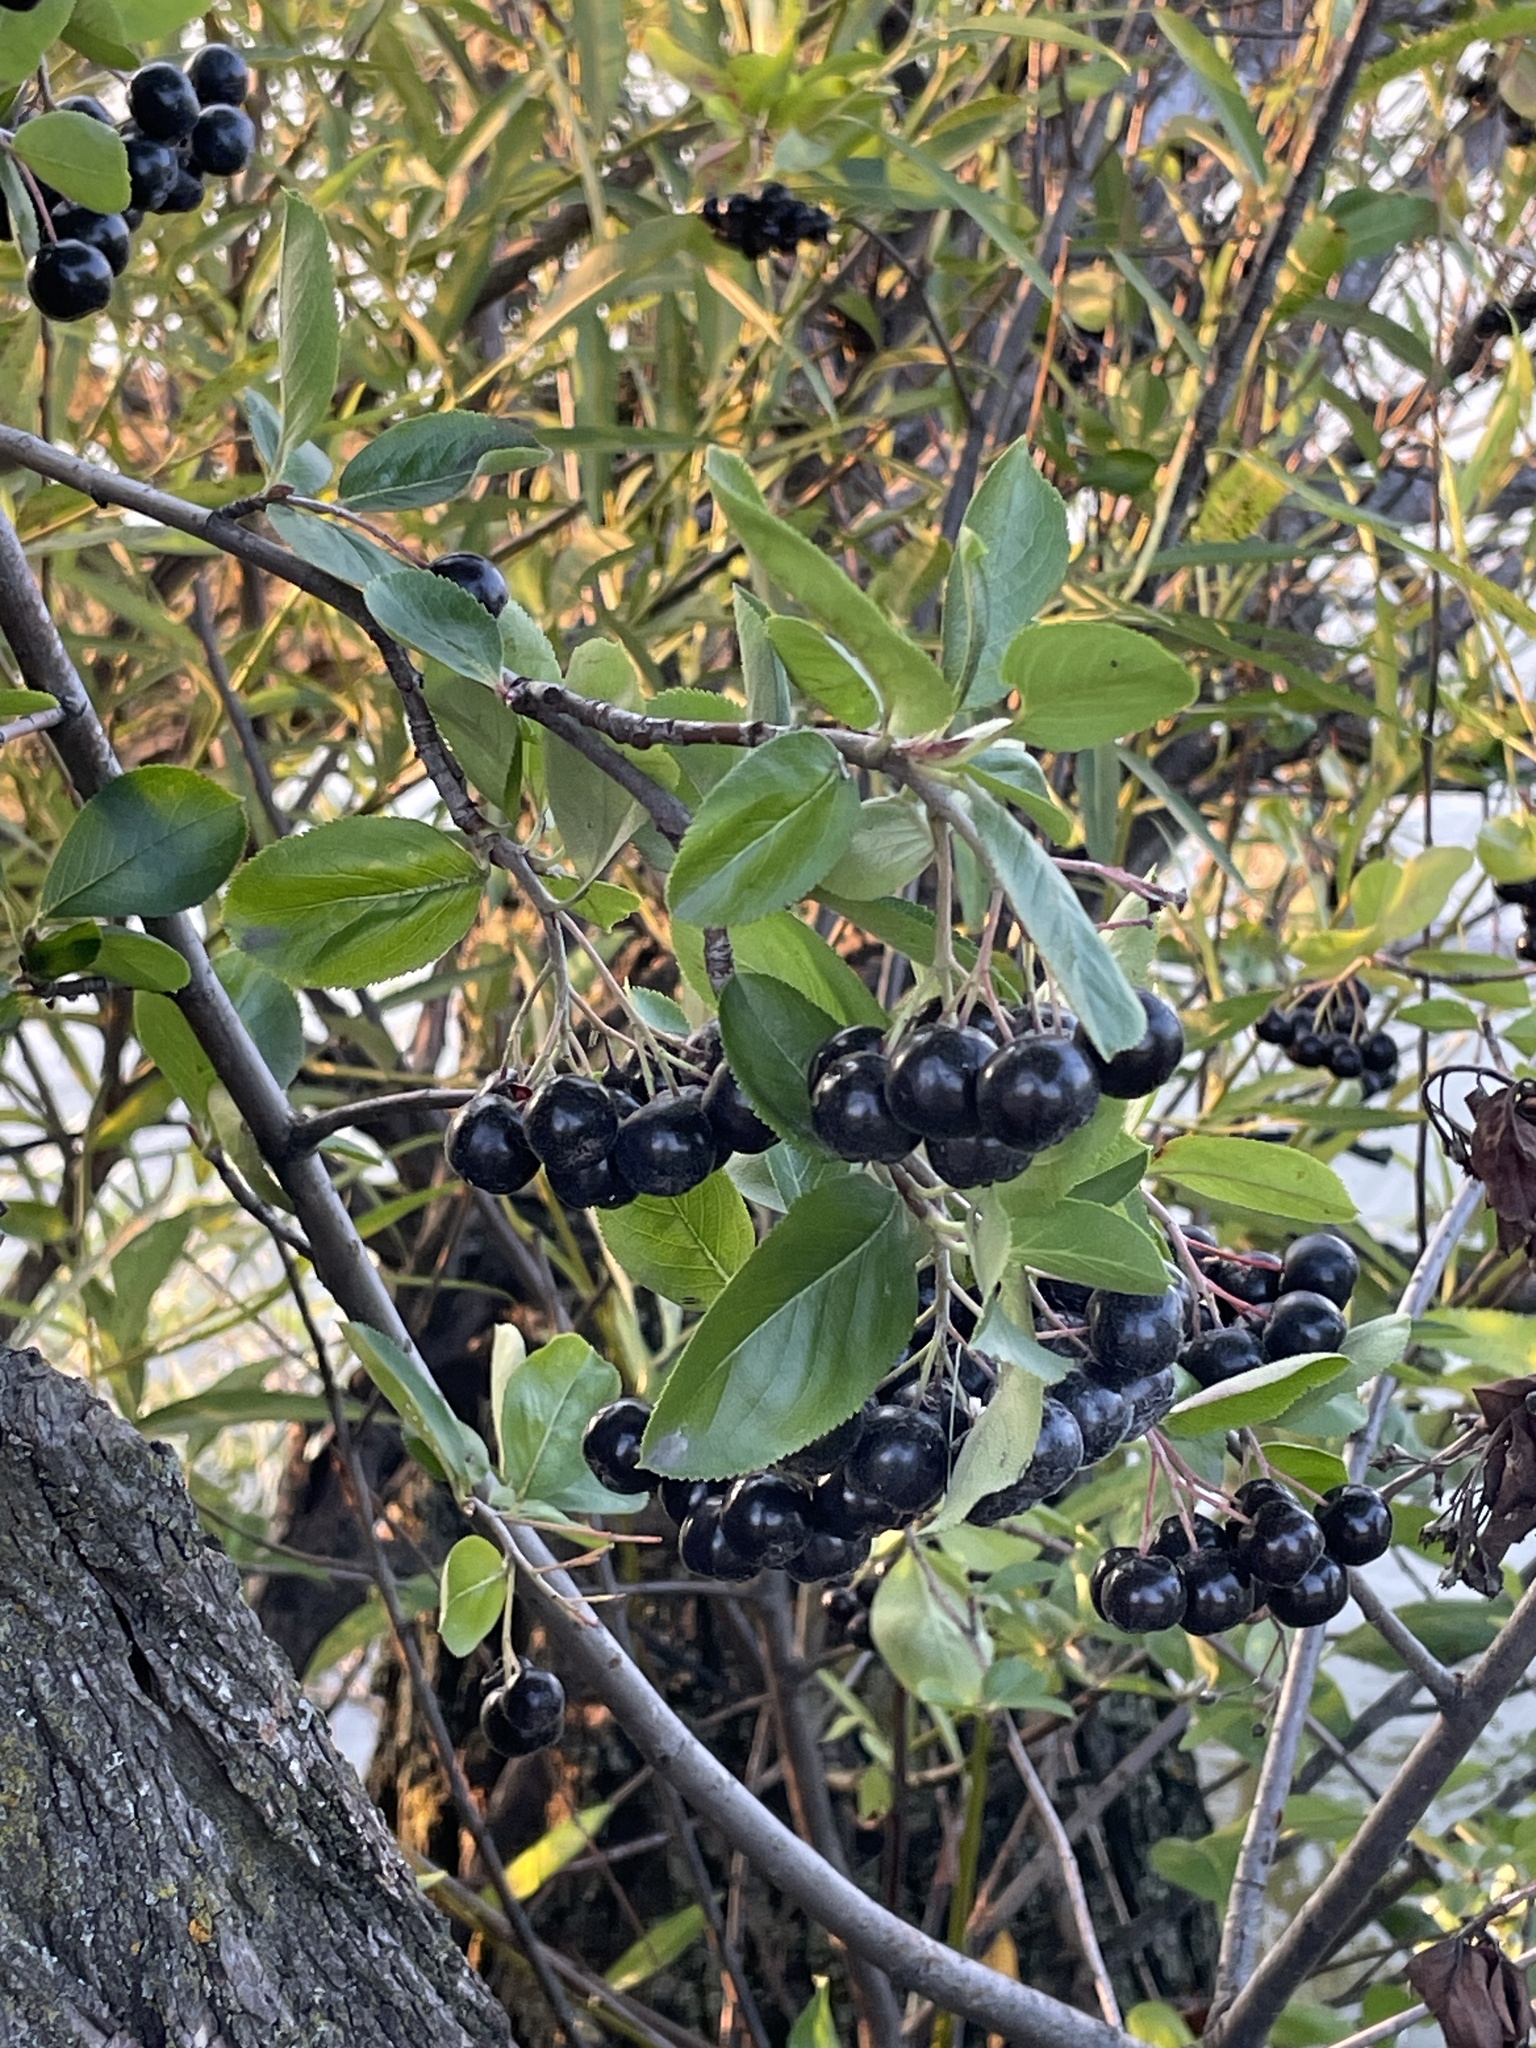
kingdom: Plantae
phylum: Tracheophyta
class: Magnoliopsida
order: Rosales
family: Rosaceae
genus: Aronia
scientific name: Aronia melanocarpa
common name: Black chokeberry
